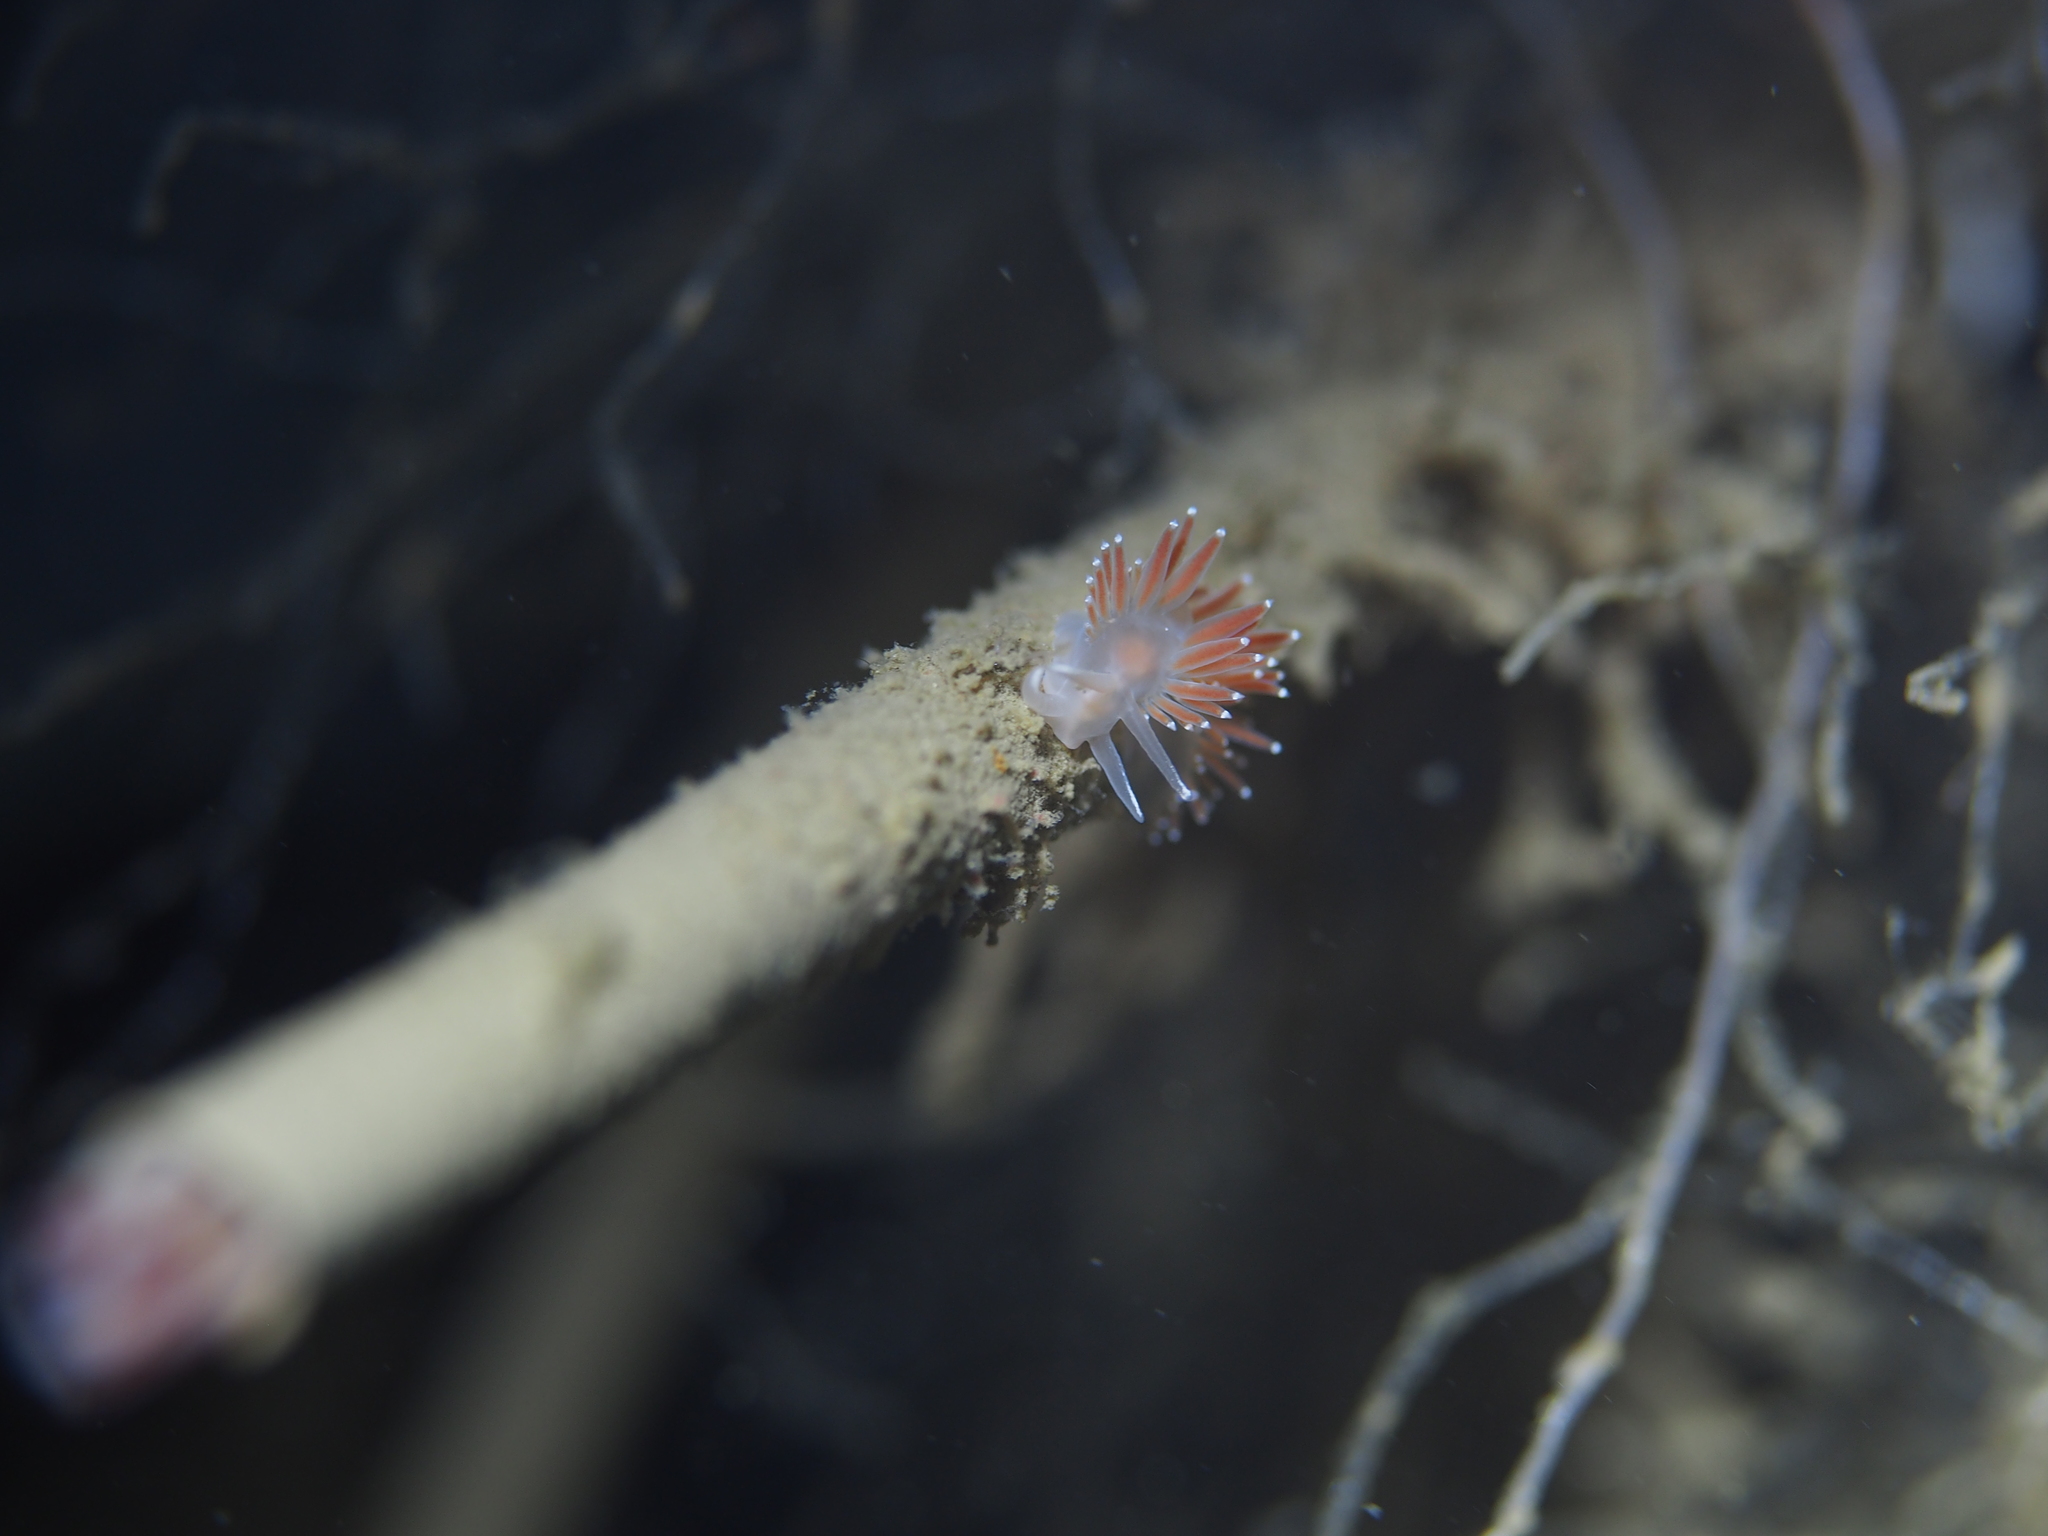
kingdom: Animalia
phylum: Mollusca
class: Gastropoda
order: Nudibranchia
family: Coryphellidae
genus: Coryphella
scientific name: Coryphella verrucosa
